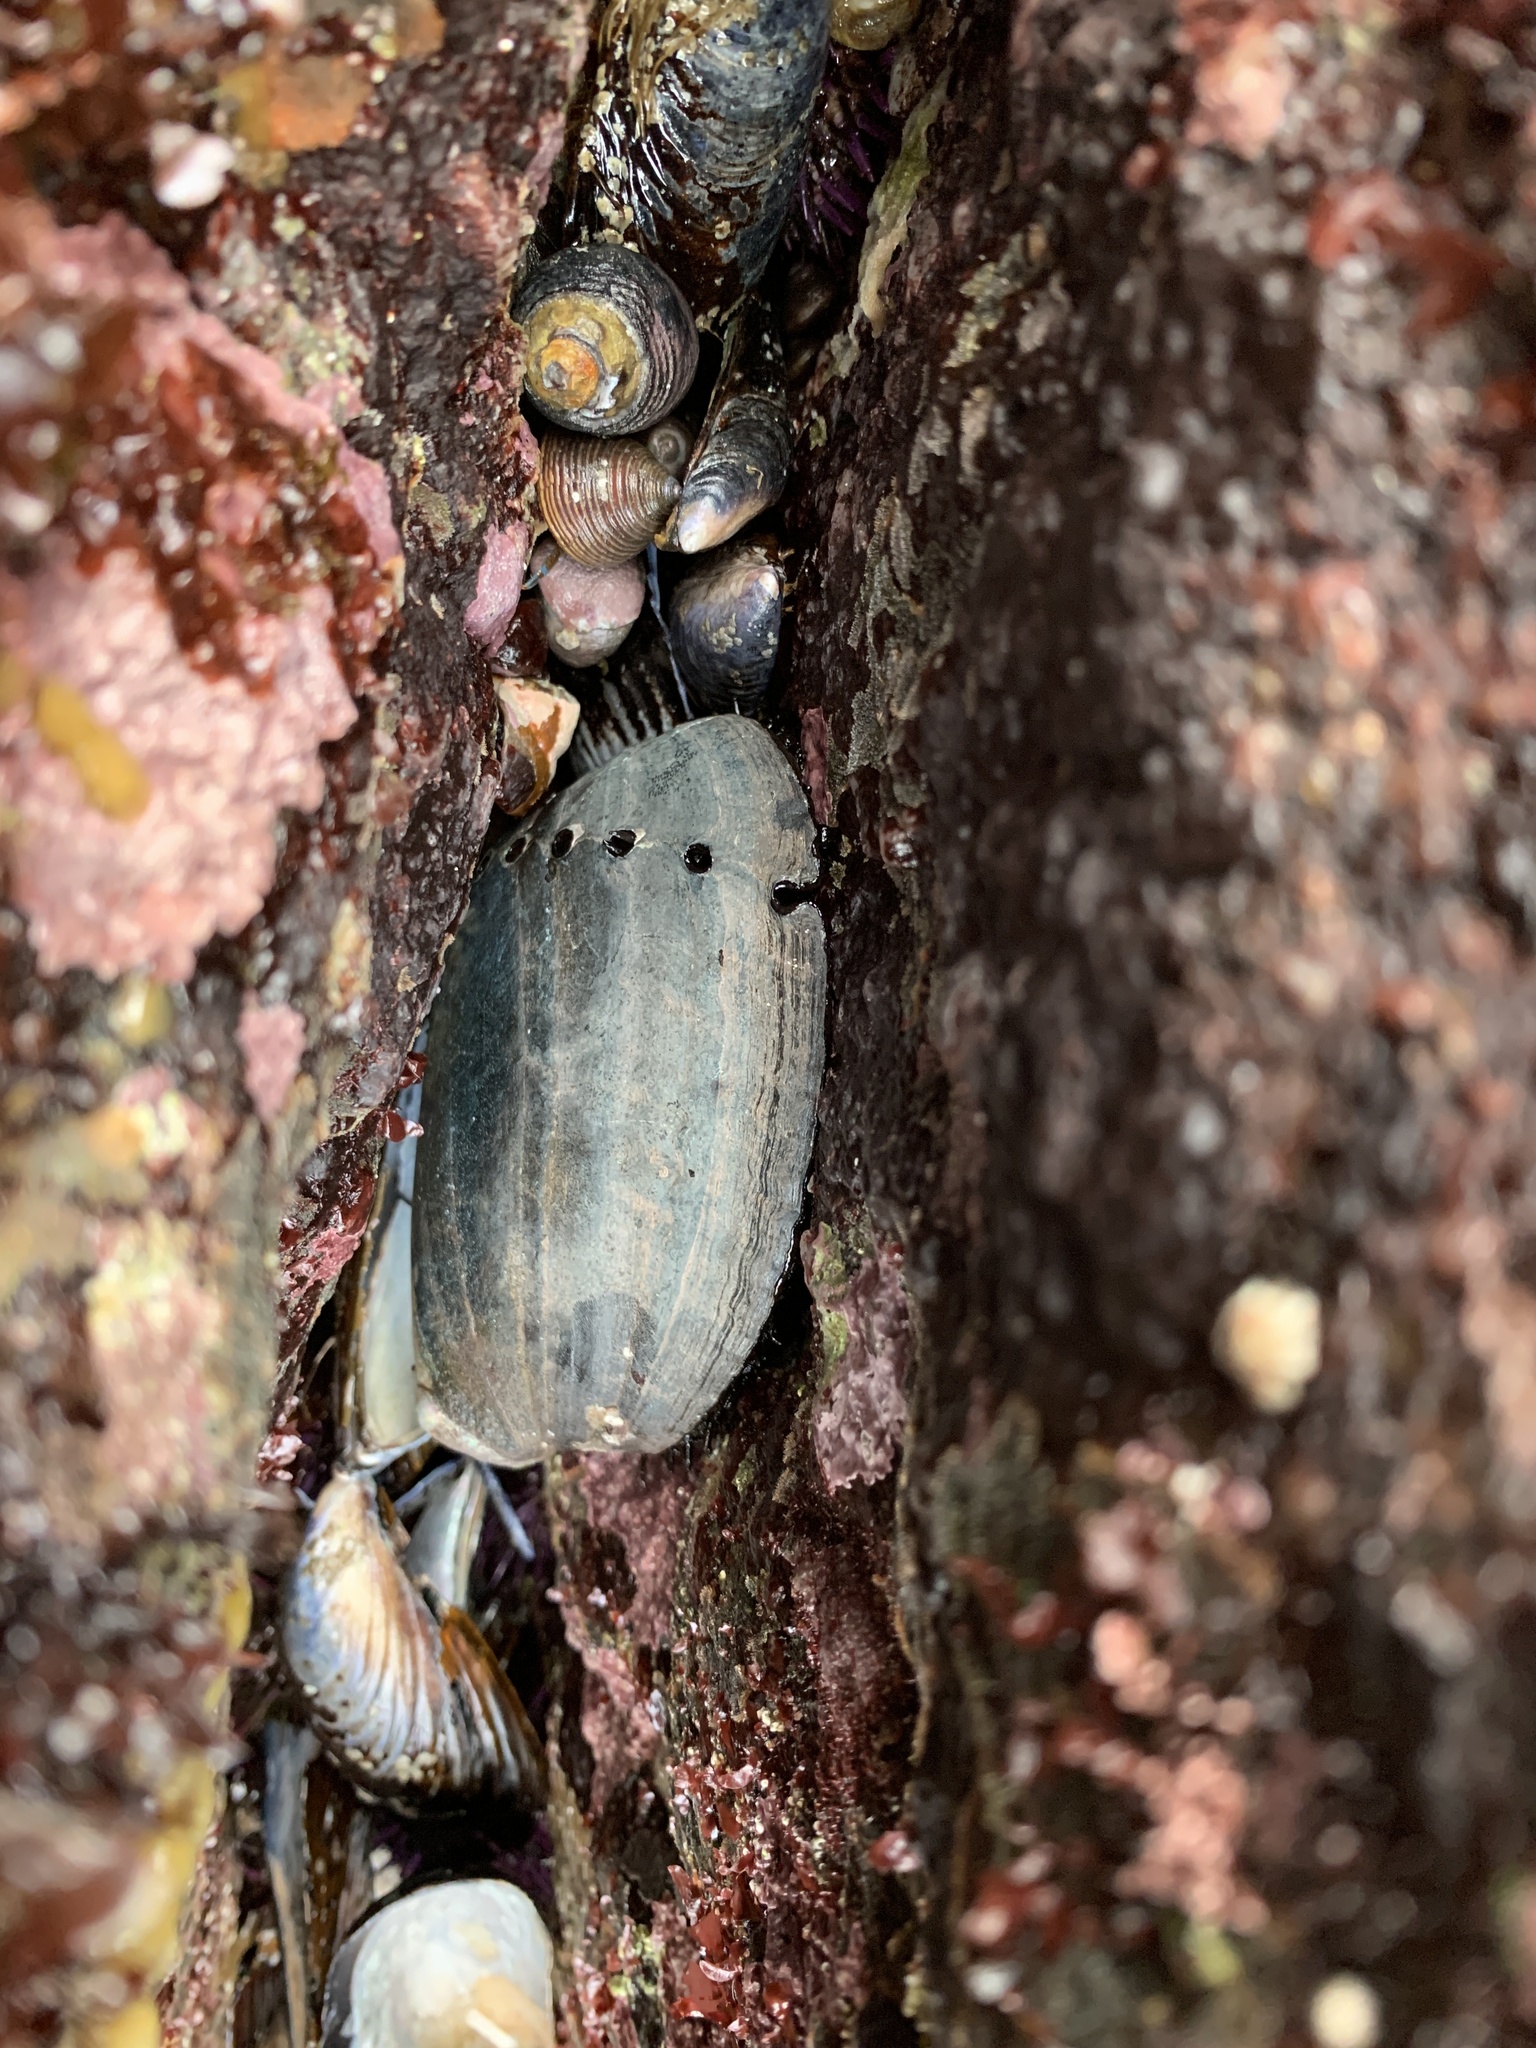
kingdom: Animalia
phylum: Mollusca
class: Gastropoda
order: Lepetellida
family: Haliotidae
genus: Haliotis
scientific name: Haliotis cracherodii
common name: Black abalone
